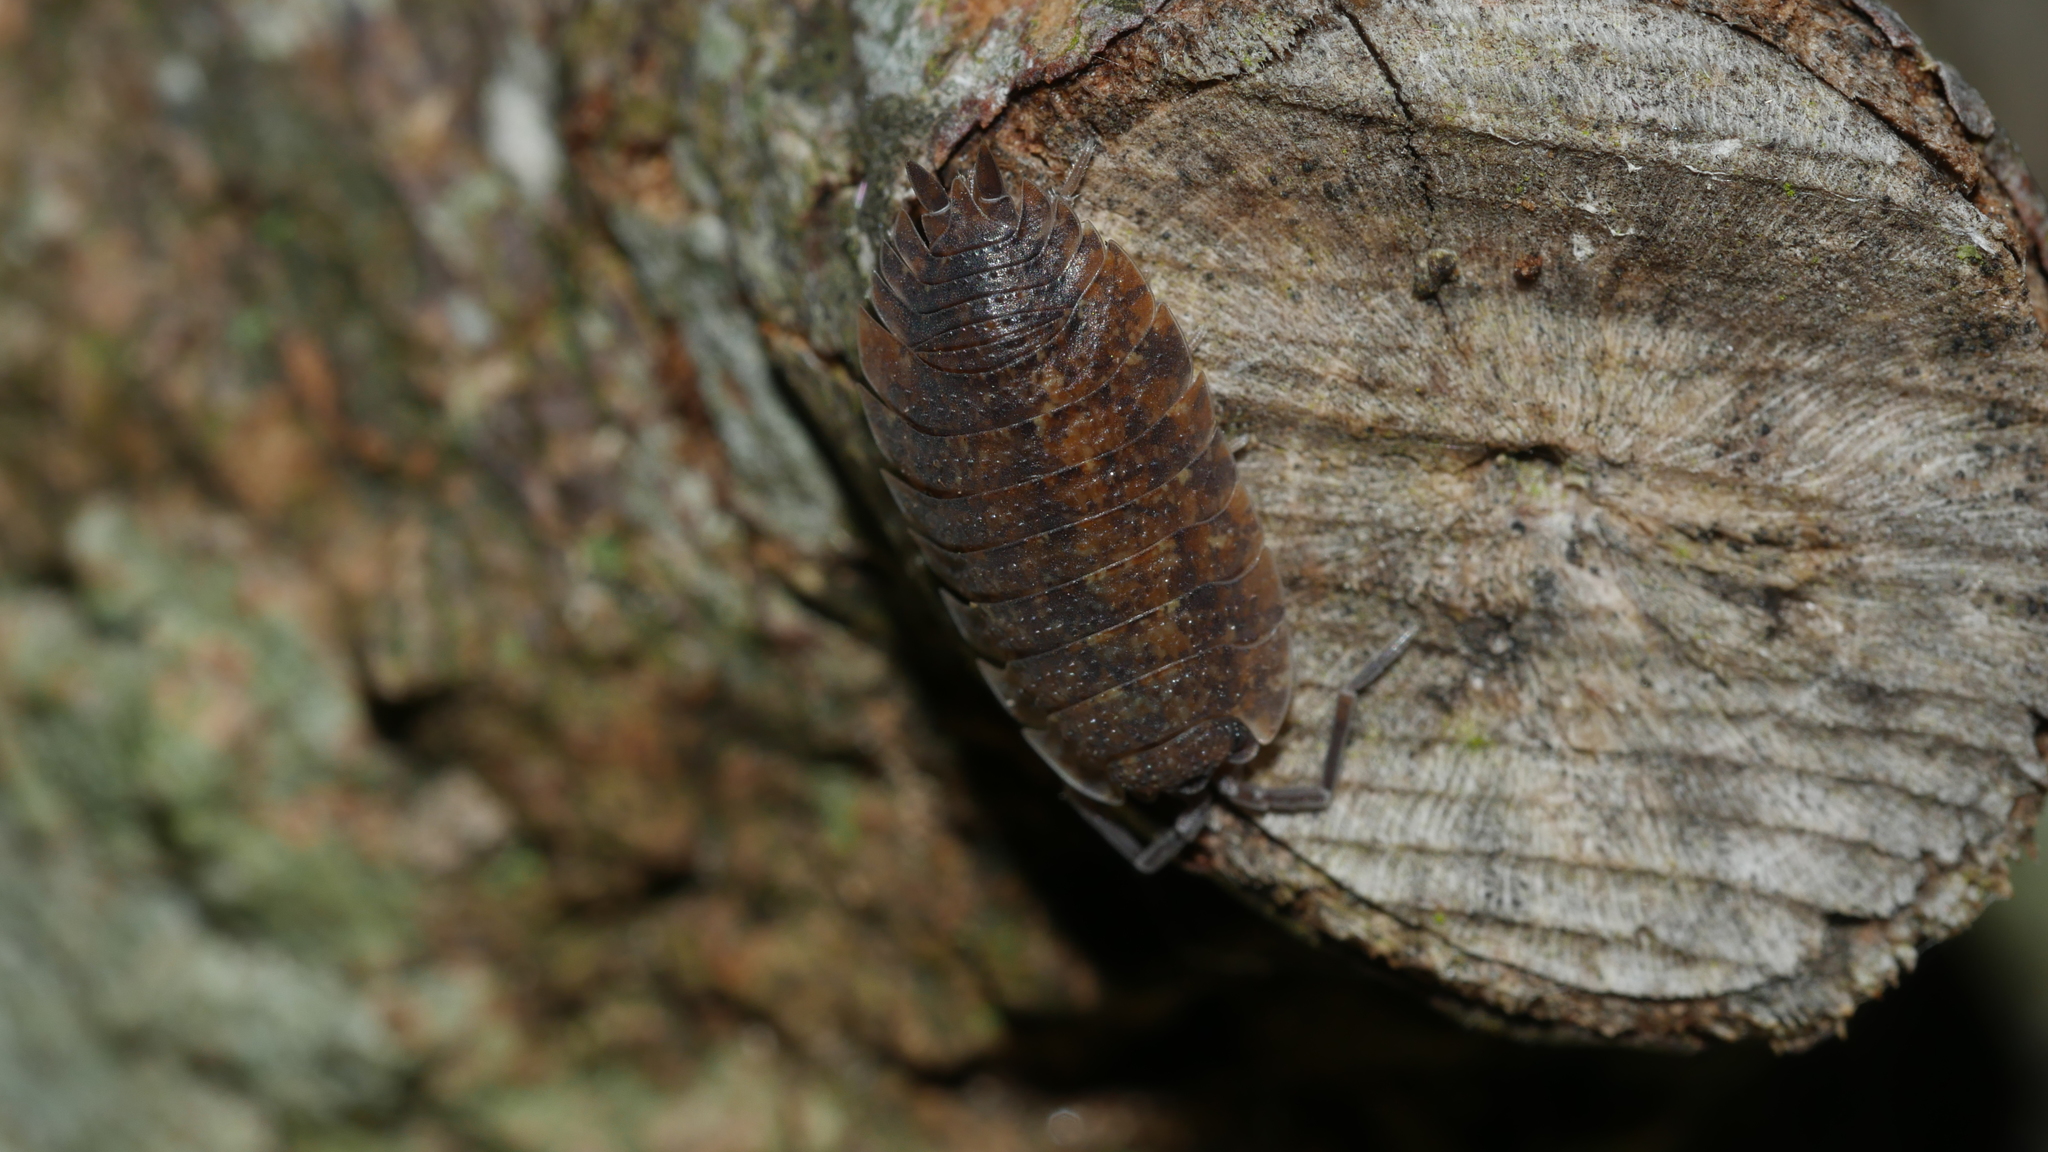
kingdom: Animalia
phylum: Arthropoda
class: Malacostraca
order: Isopoda
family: Porcellionidae
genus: Porcellio
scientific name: Porcellio scaber
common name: Common rough woodlouse
